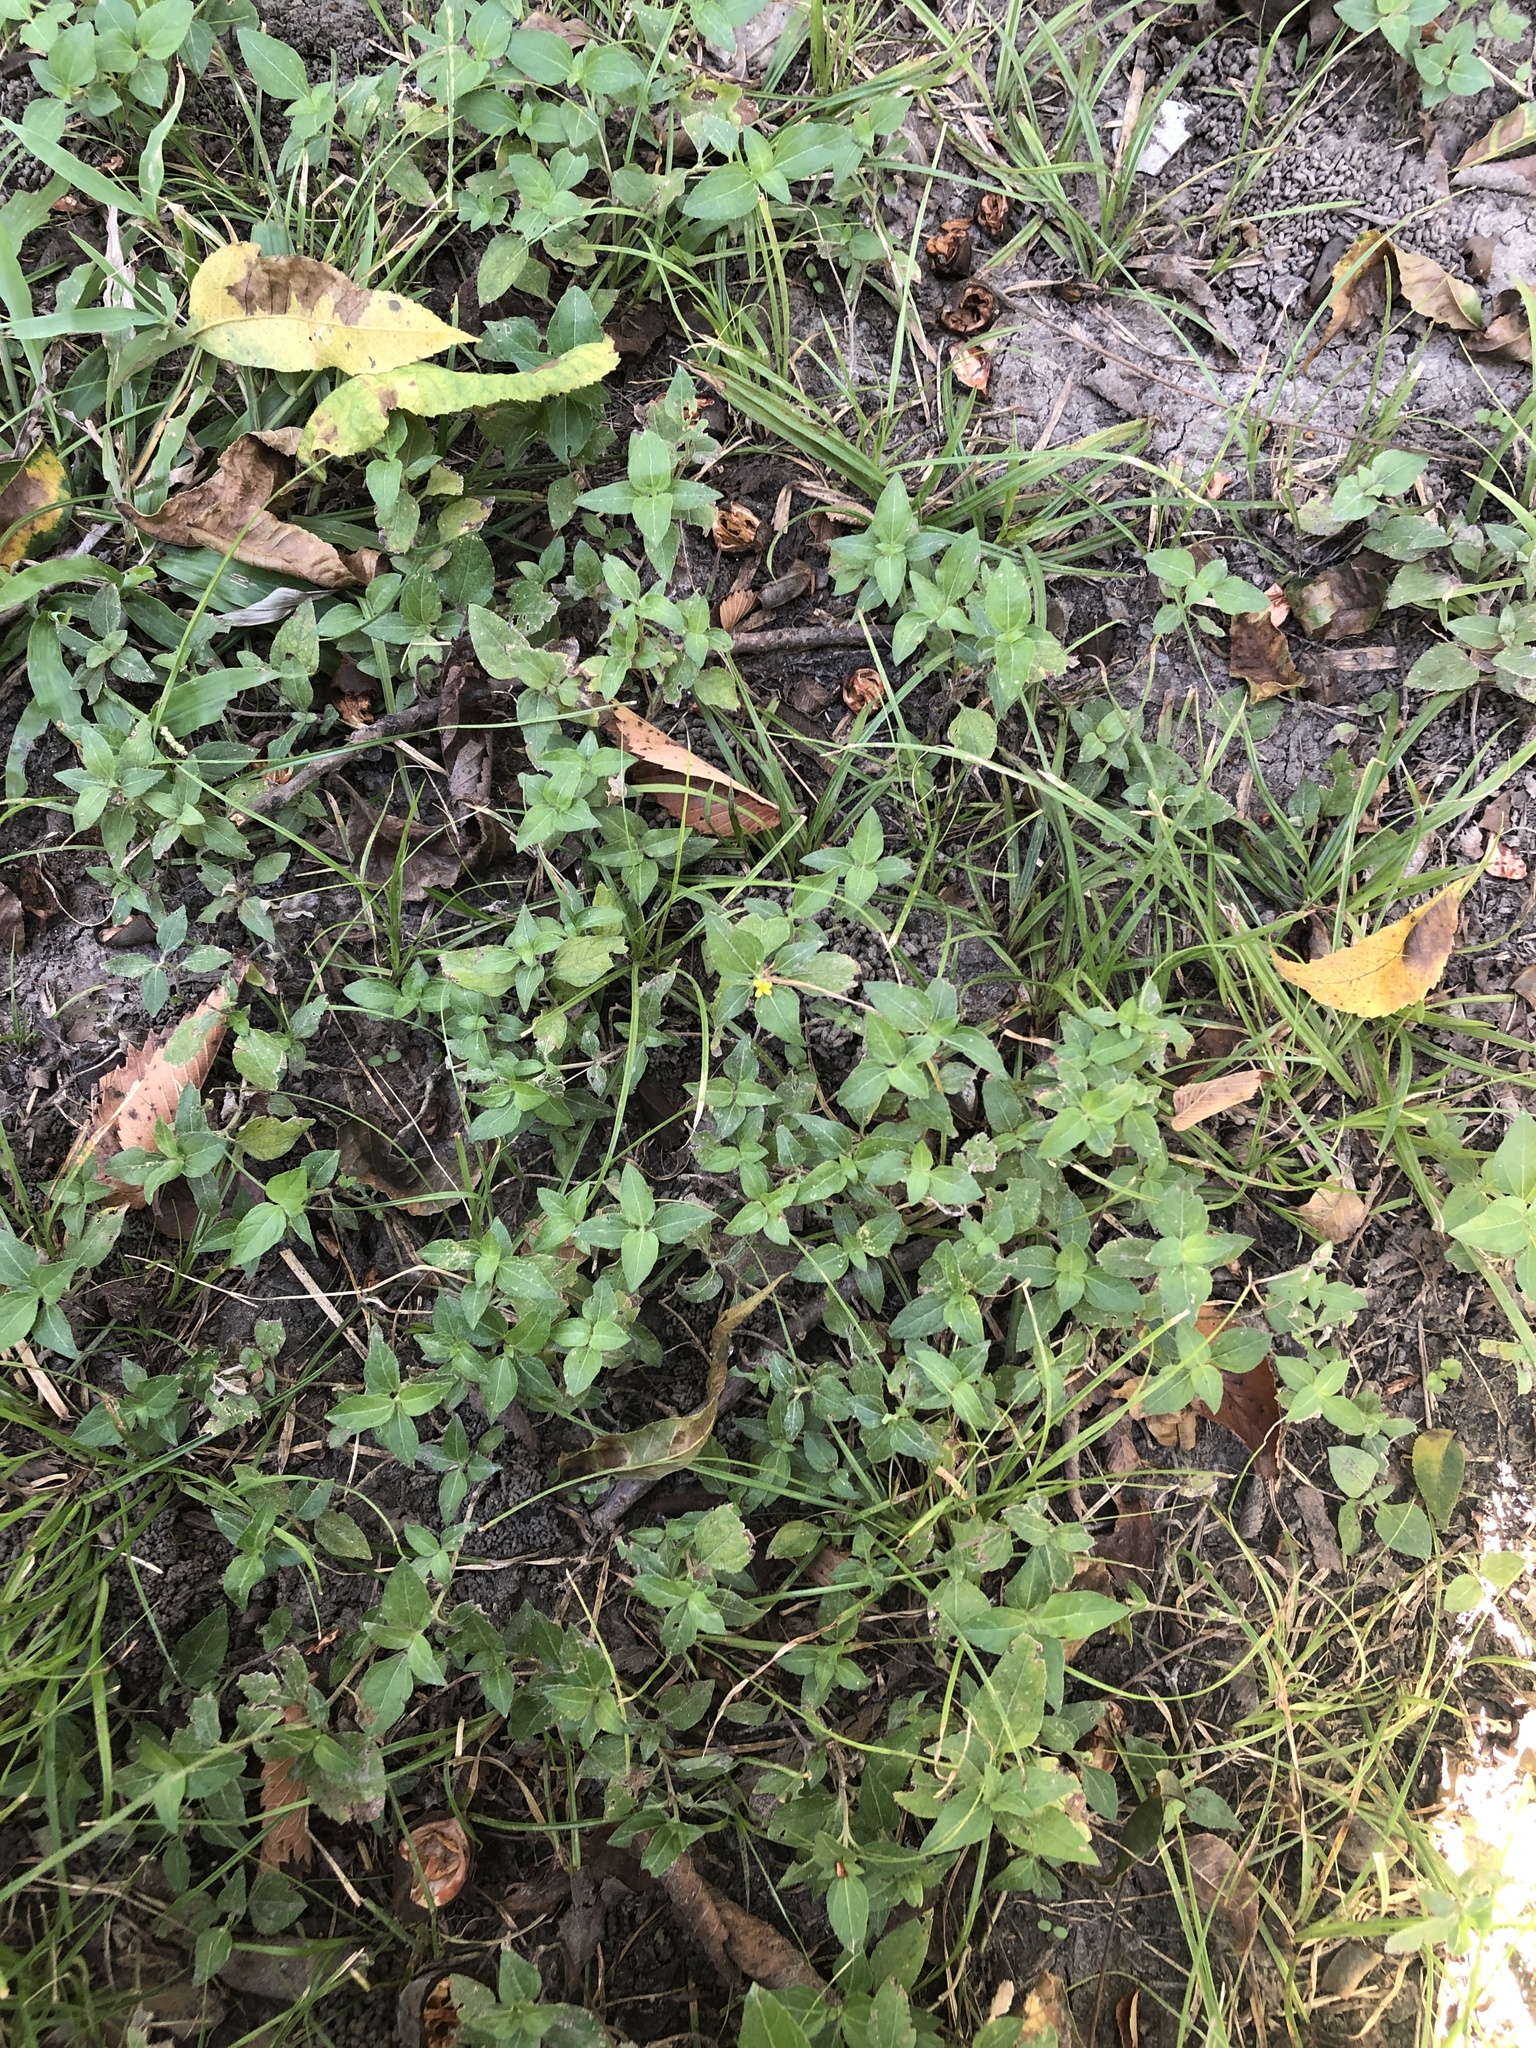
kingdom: Plantae
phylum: Tracheophyta
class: Magnoliopsida
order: Asterales
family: Asteraceae
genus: Calyptocarpus
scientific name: Calyptocarpus vialis
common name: Straggler daisy
